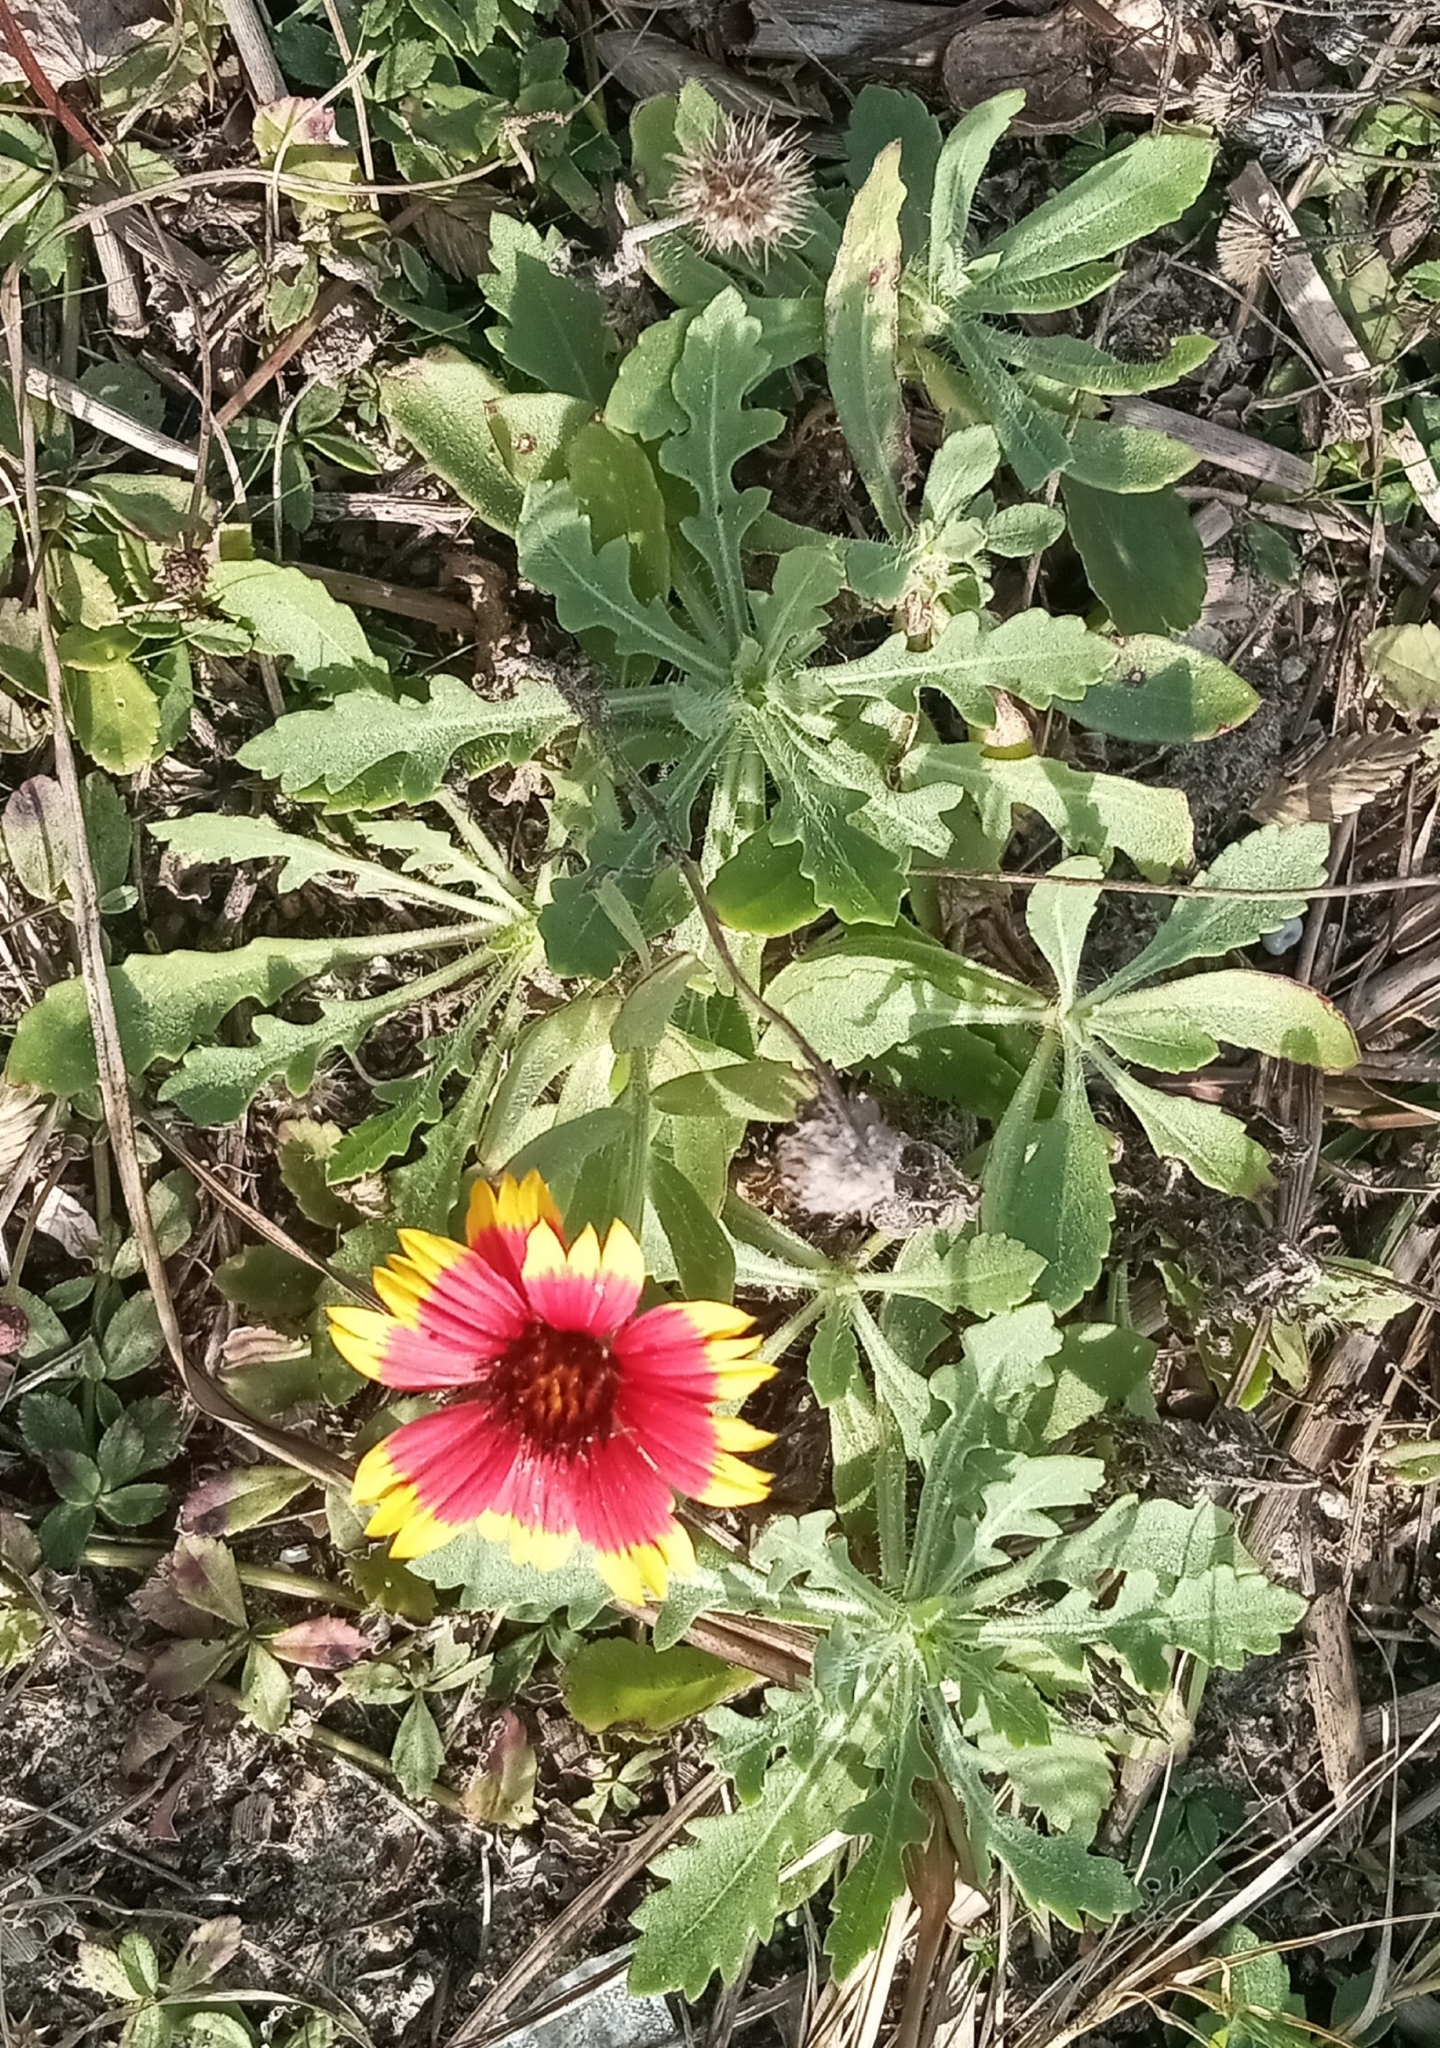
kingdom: Plantae
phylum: Tracheophyta
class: Magnoliopsida
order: Asterales
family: Asteraceae
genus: Gaillardia
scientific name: Gaillardia pulchella
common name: Firewheel
